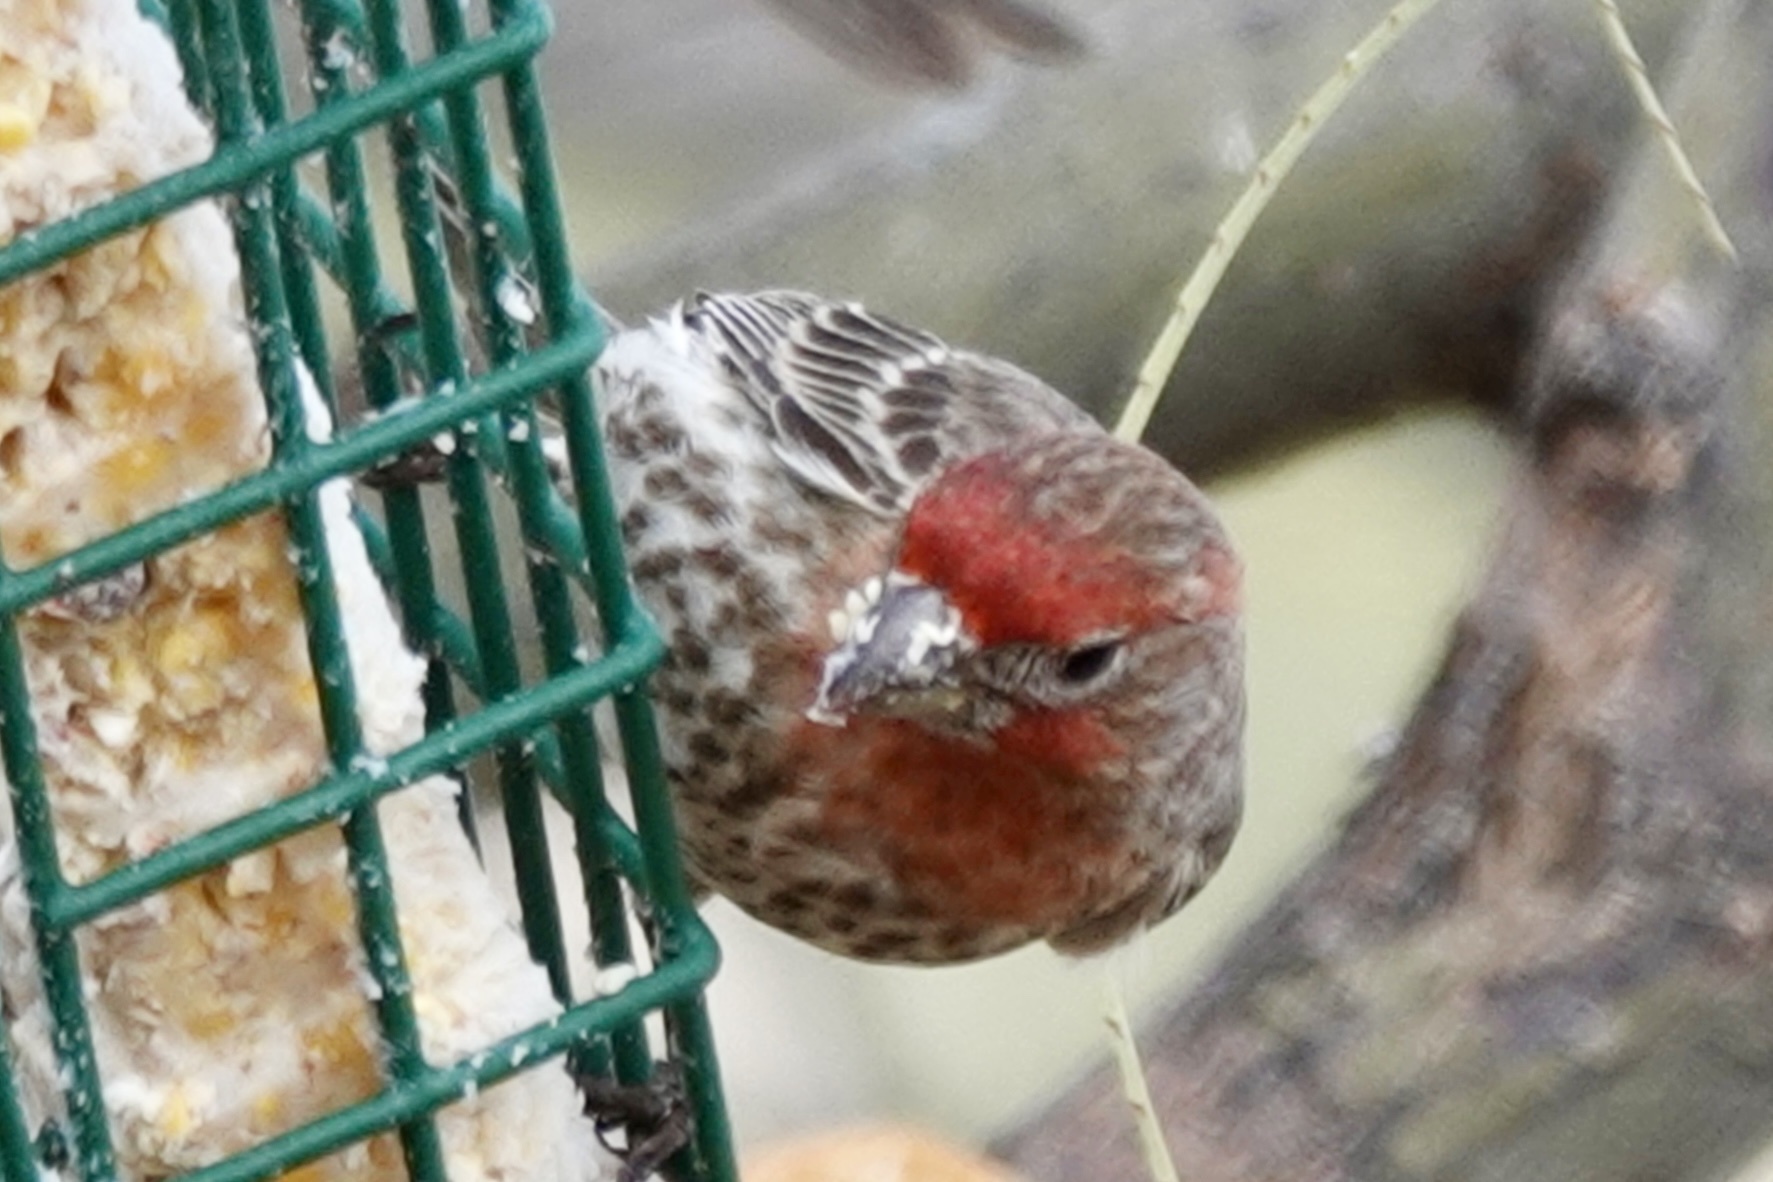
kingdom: Animalia
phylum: Chordata
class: Aves
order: Passeriformes
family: Fringillidae
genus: Haemorhous
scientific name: Haemorhous mexicanus
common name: House finch
